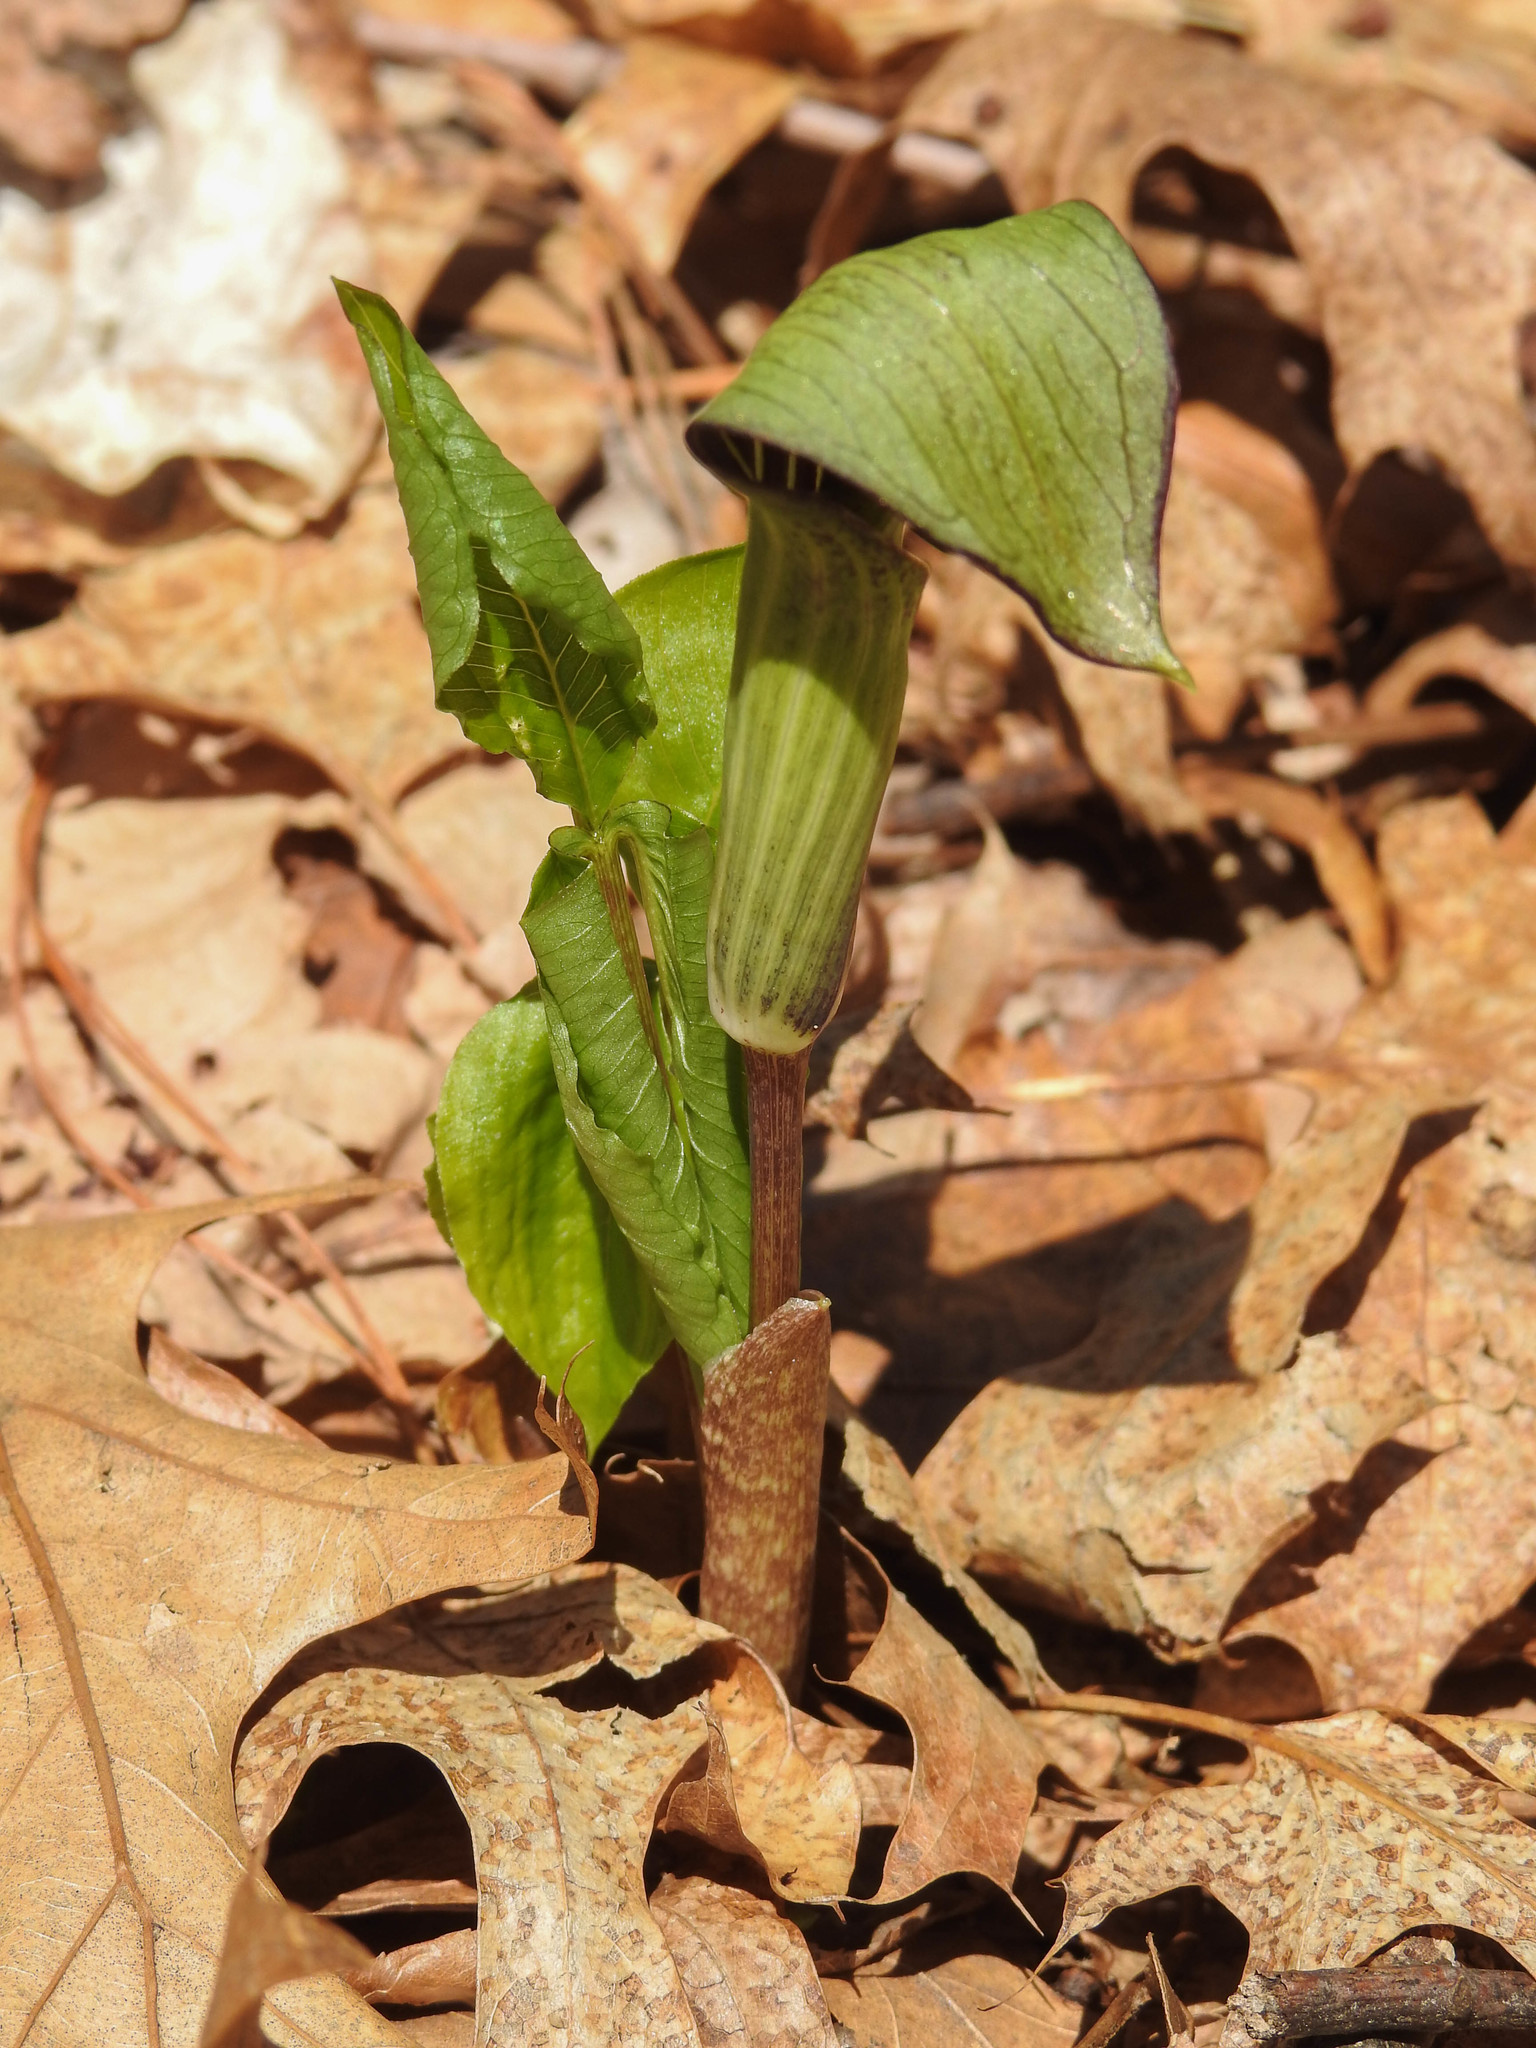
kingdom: Plantae
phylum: Tracheophyta
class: Liliopsida
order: Alismatales
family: Araceae
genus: Arisaema
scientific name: Arisaema triphyllum
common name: Jack-in-the-pulpit
